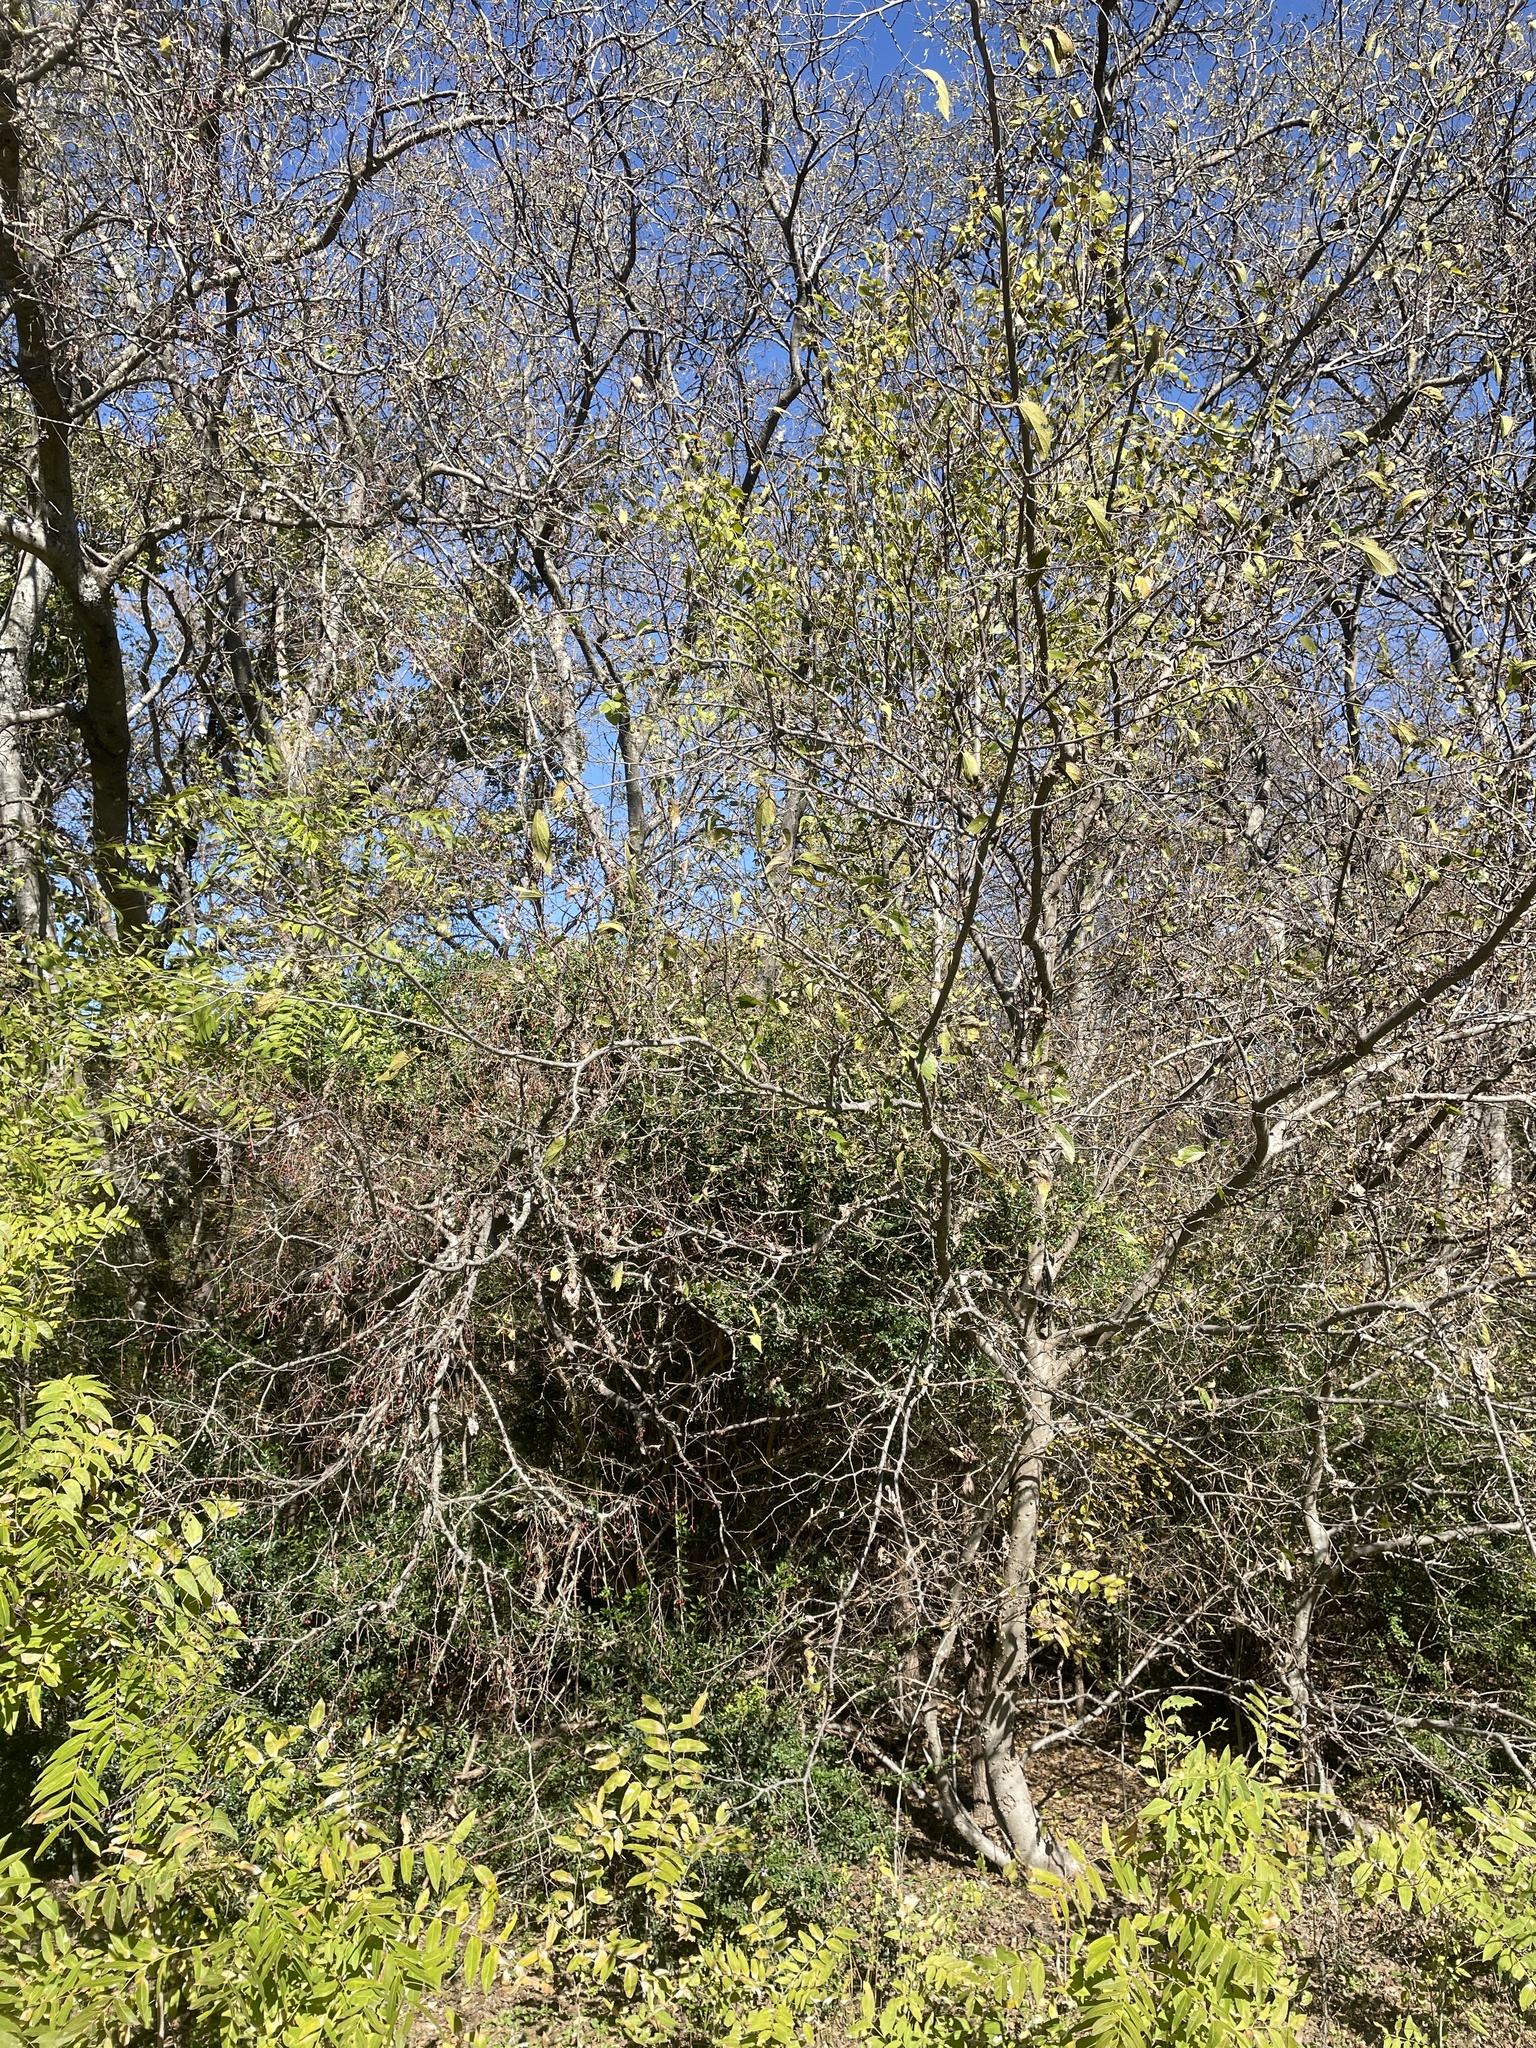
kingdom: Plantae
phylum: Tracheophyta
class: Magnoliopsida
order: Rosales
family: Cannabaceae
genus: Celtis
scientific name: Celtis laevigata
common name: Sugarberry
